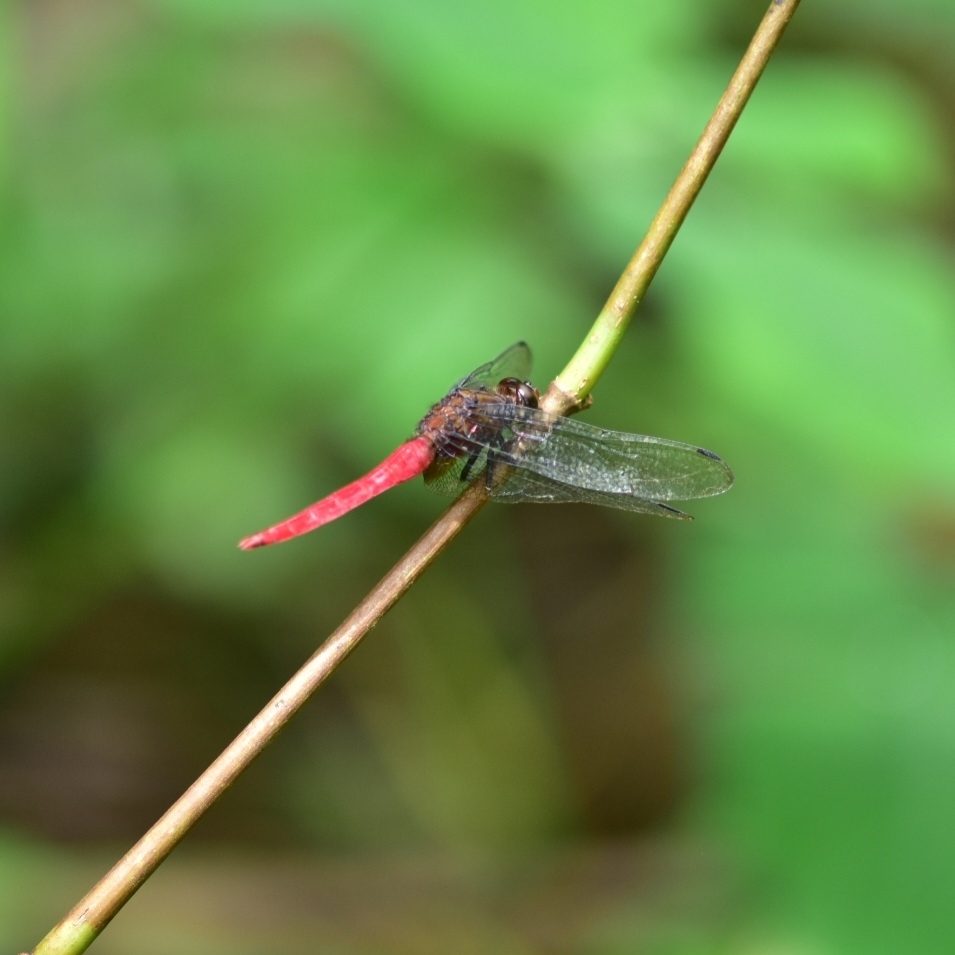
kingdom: Animalia
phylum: Arthropoda
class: Insecta
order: Odonata
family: Libellulidae
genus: Orthetrum
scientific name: Orthetrum chrysis
